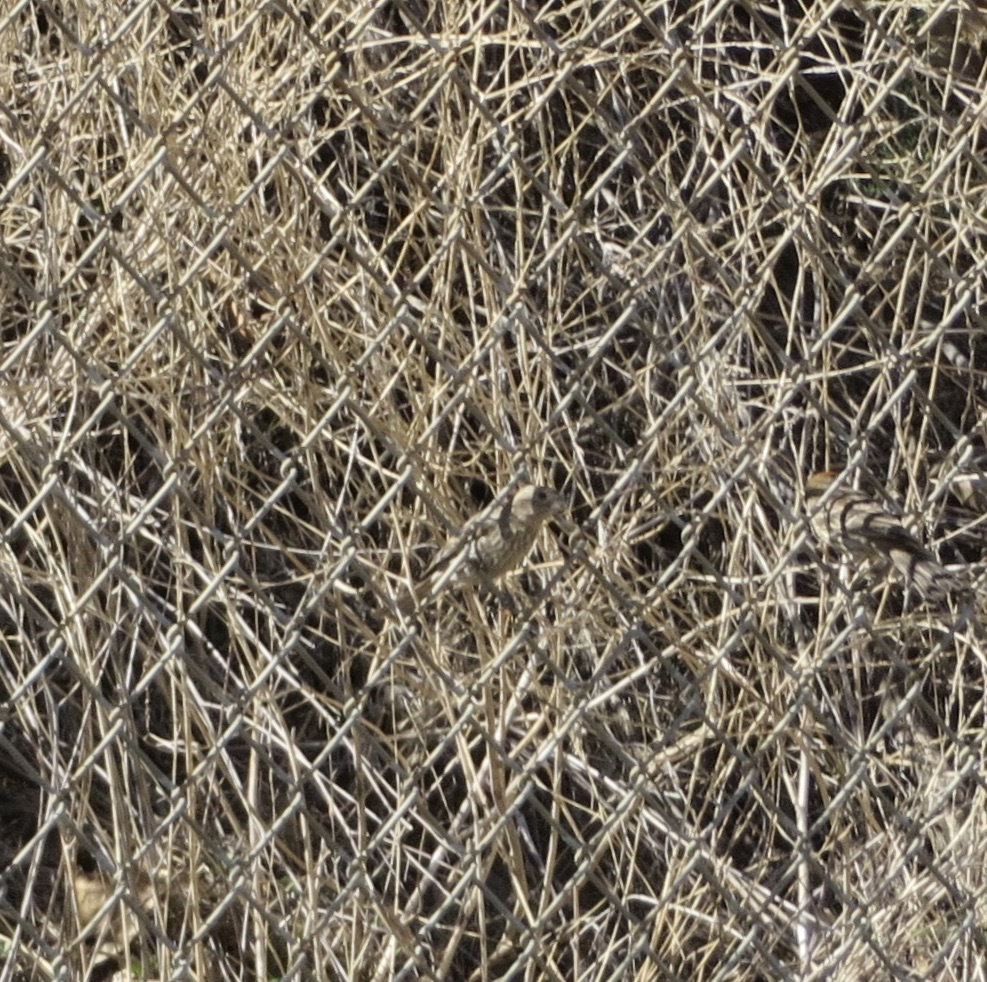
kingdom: Animalia
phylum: Chordata
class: Aves
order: Passeriformes
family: Fringillidae
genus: Haemorhous
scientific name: Haemorhous mexicanus
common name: House finch
